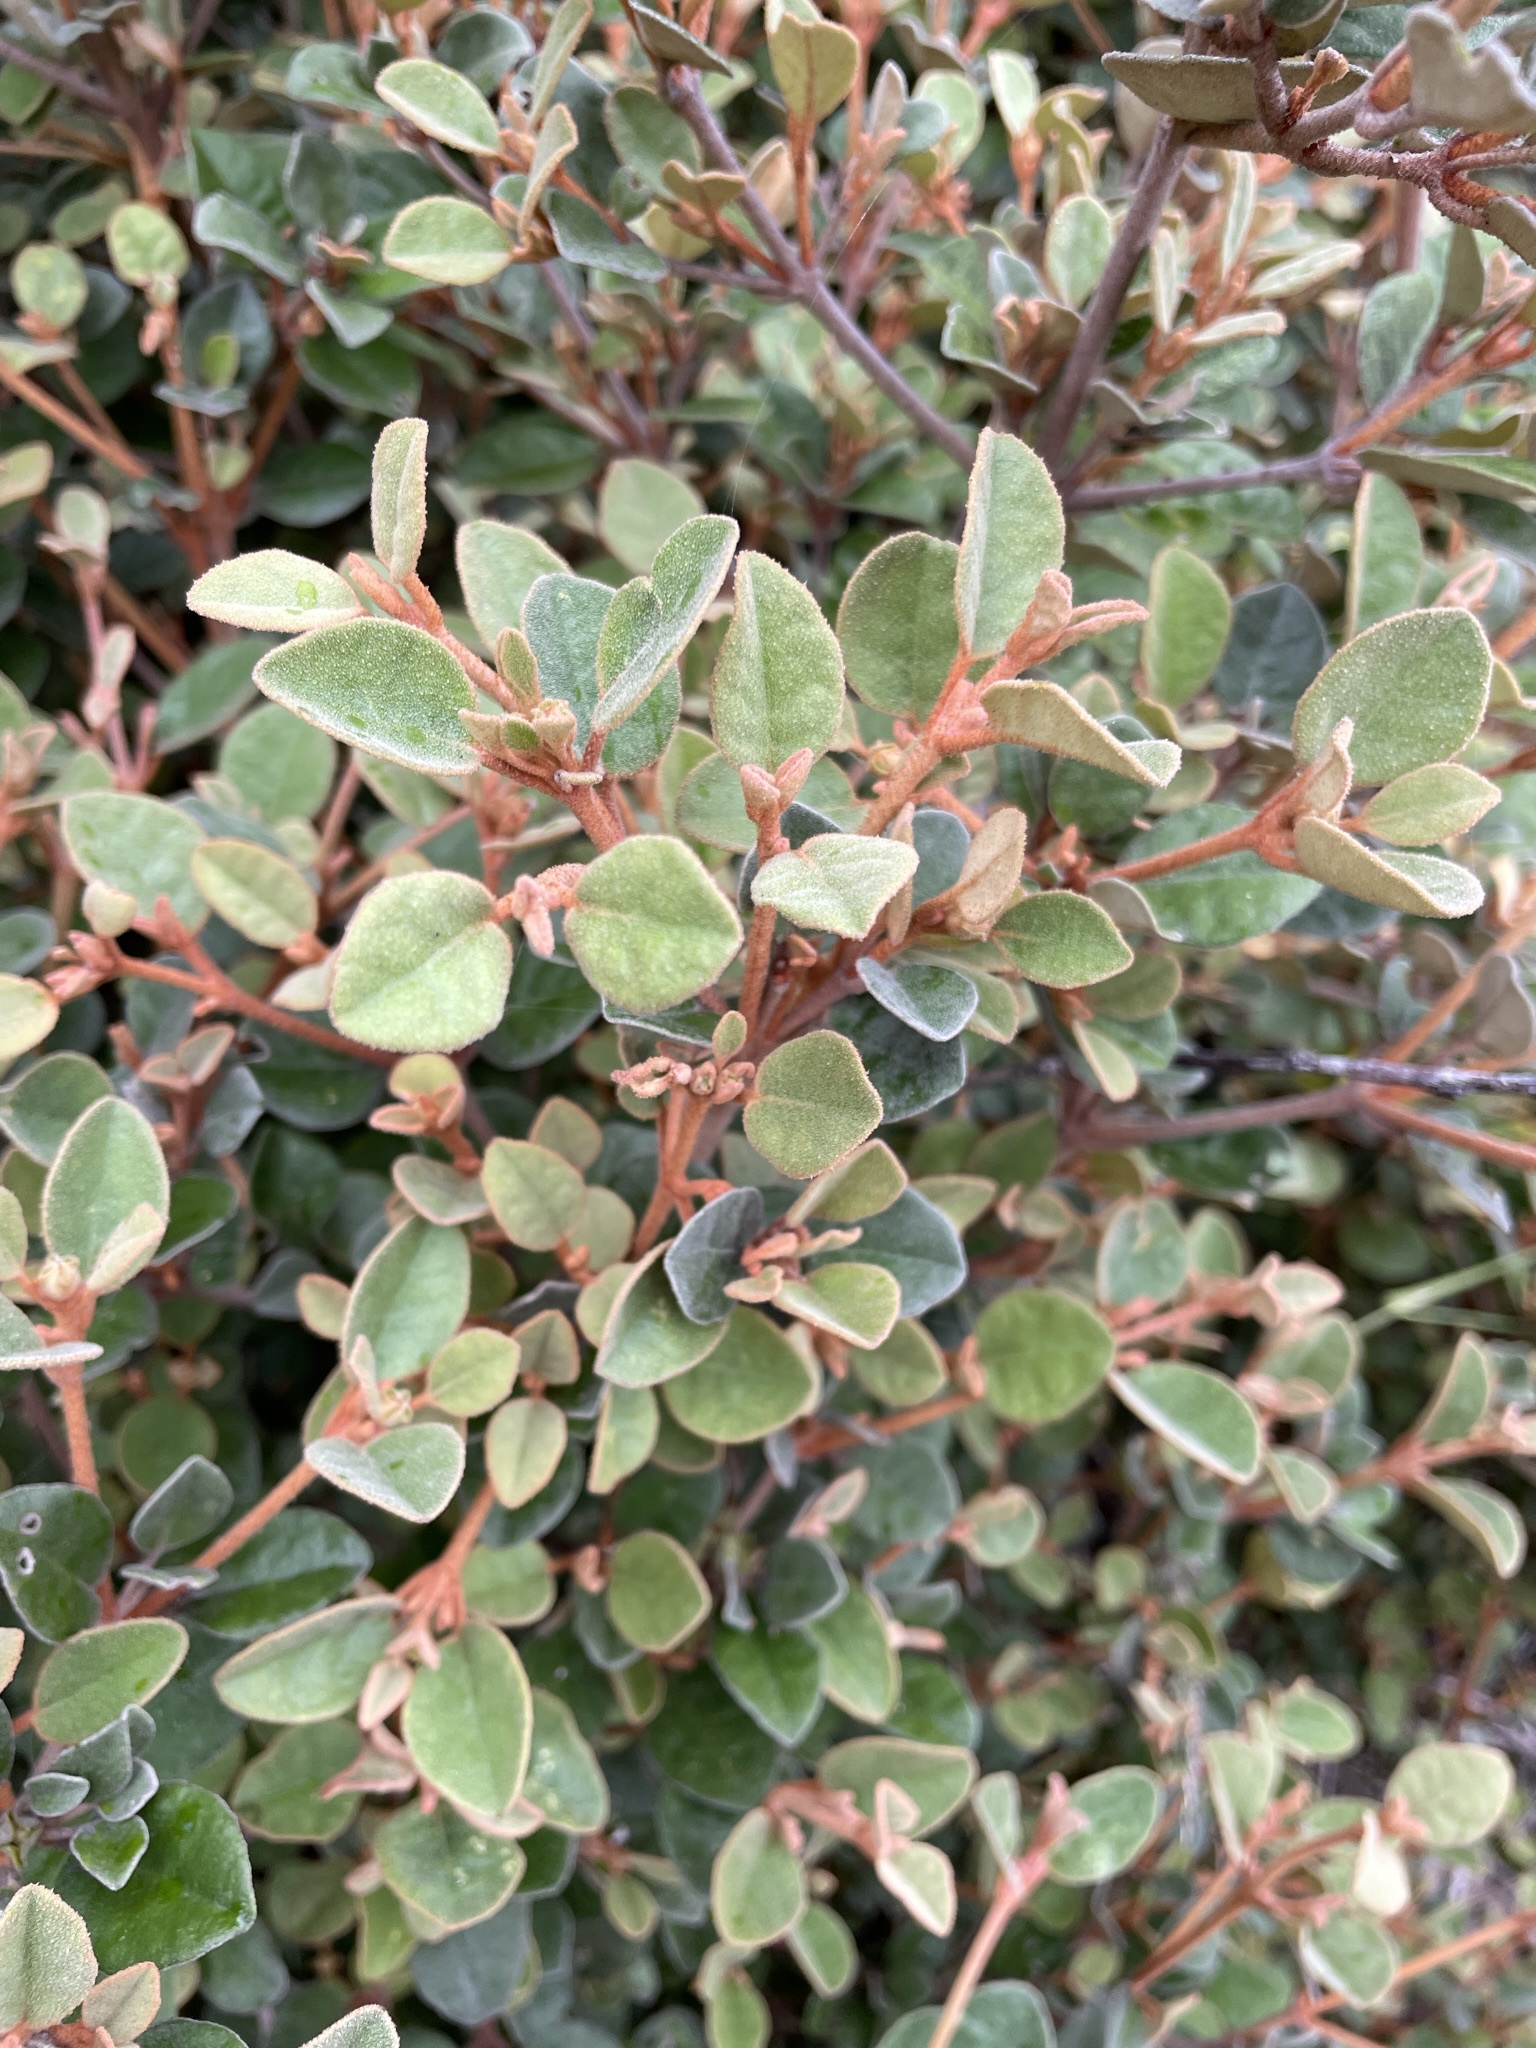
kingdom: Plantae
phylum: Tracheophyta
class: Magnoliopsida
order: Sapindales
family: Rutaceae
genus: Correa
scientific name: Correa alba
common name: White correa
